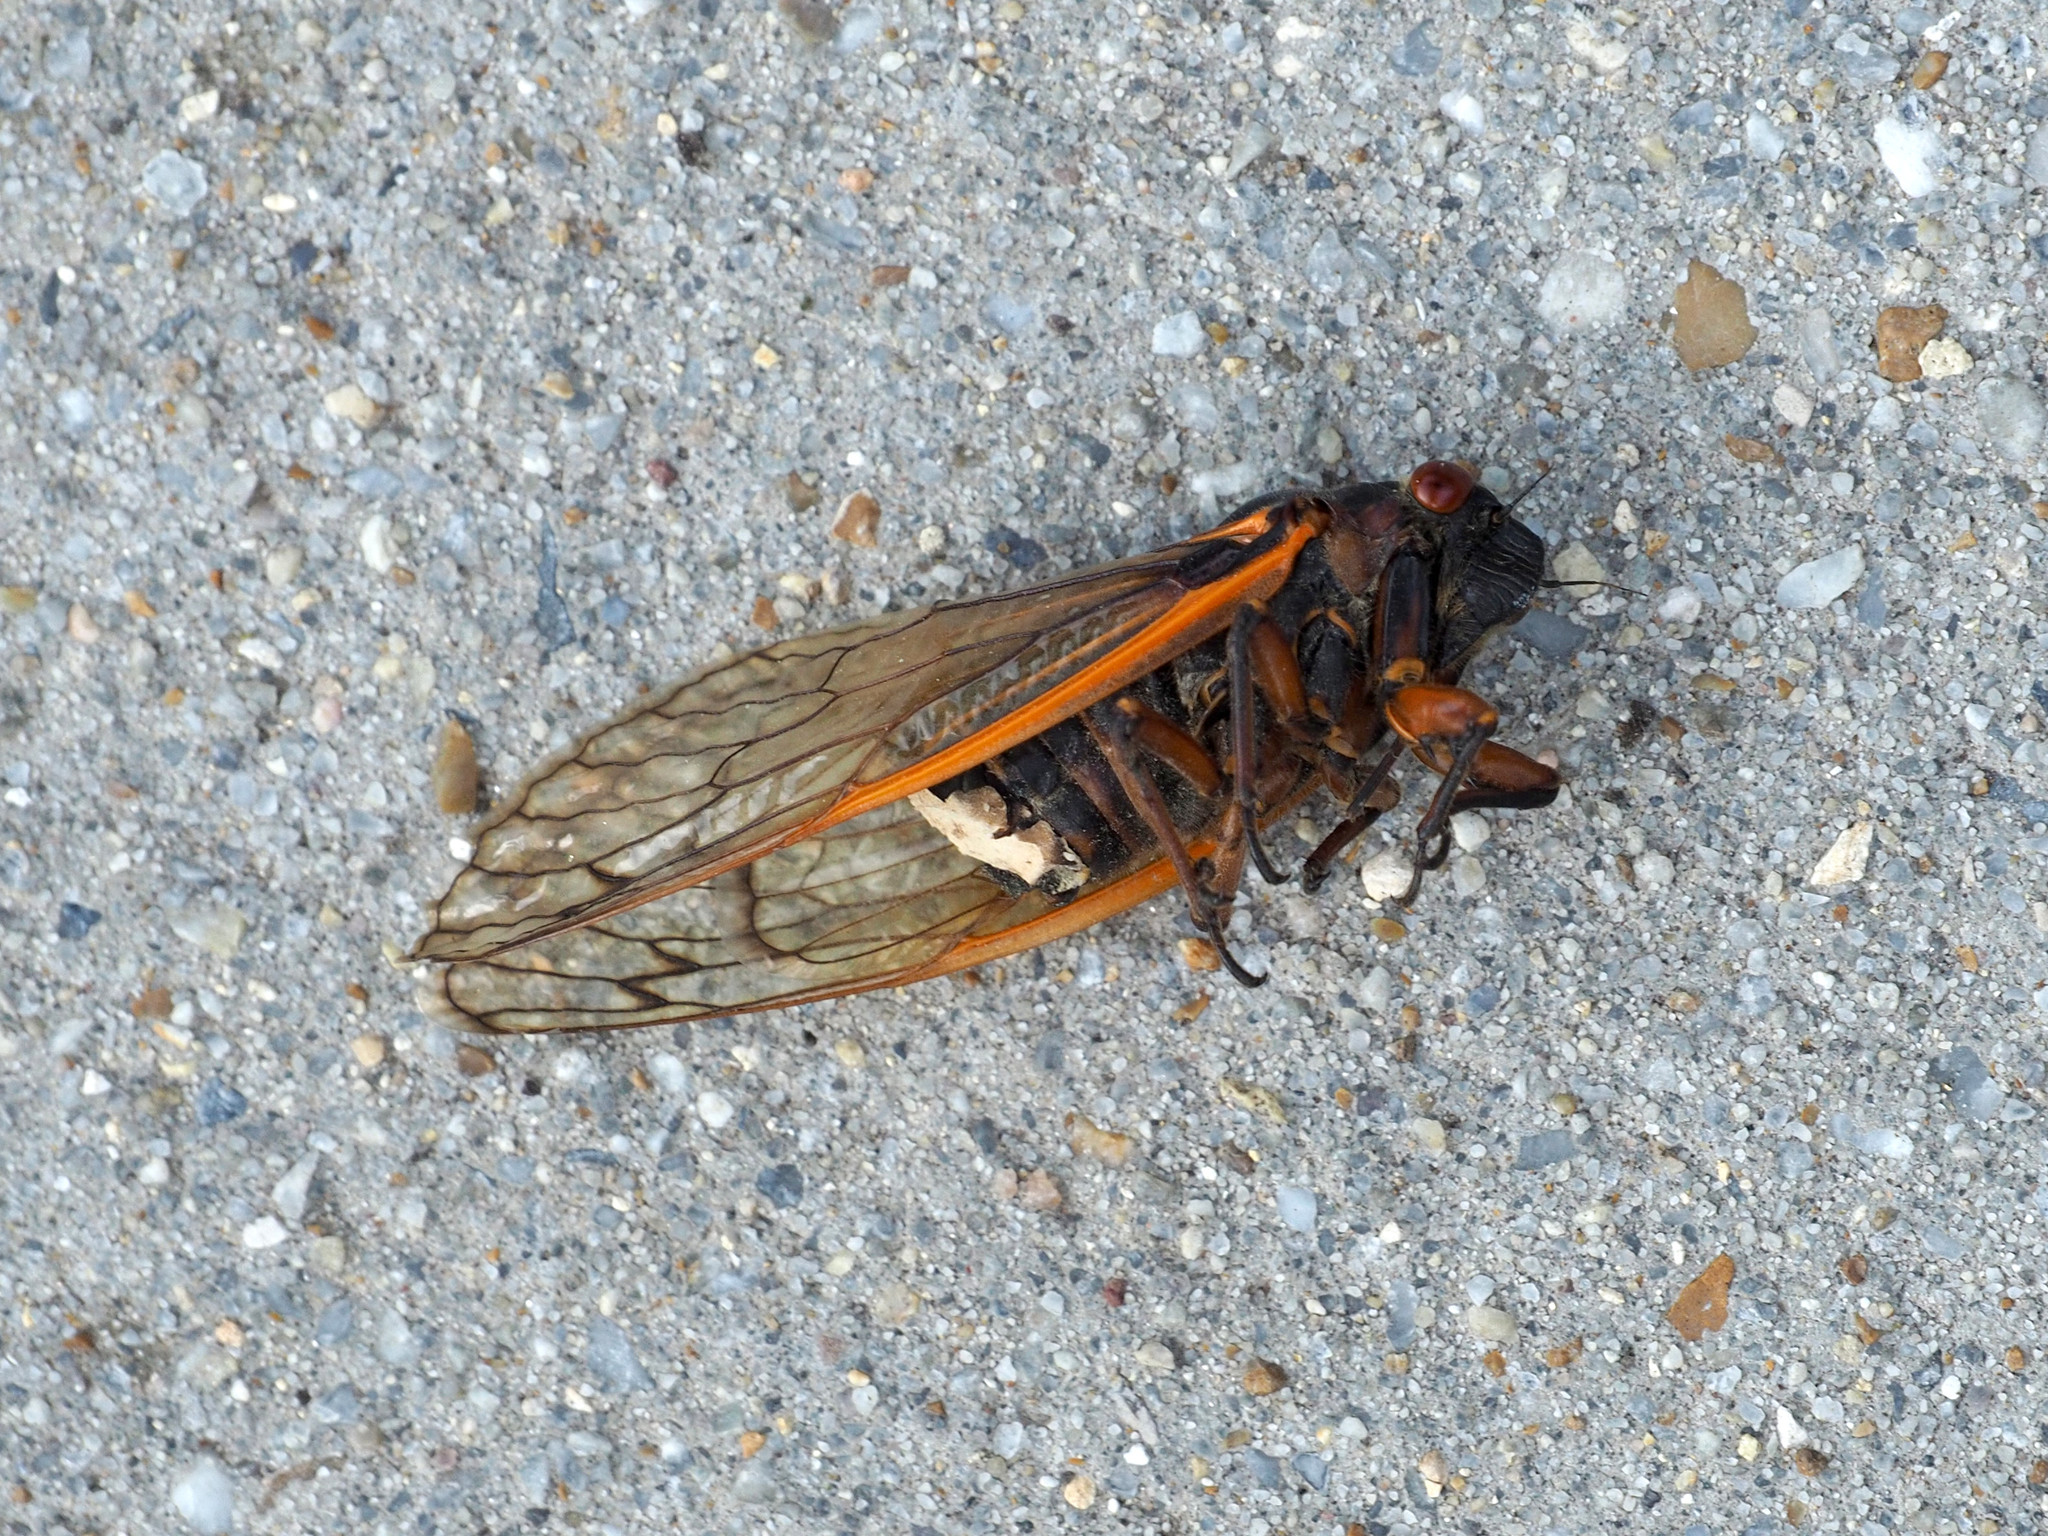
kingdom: Animalia
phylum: Arthropoda
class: Insecta
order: Hemiptera
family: Cicadidae
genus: Magicicada
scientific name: Magicicada septendecim
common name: Periodical cicada
